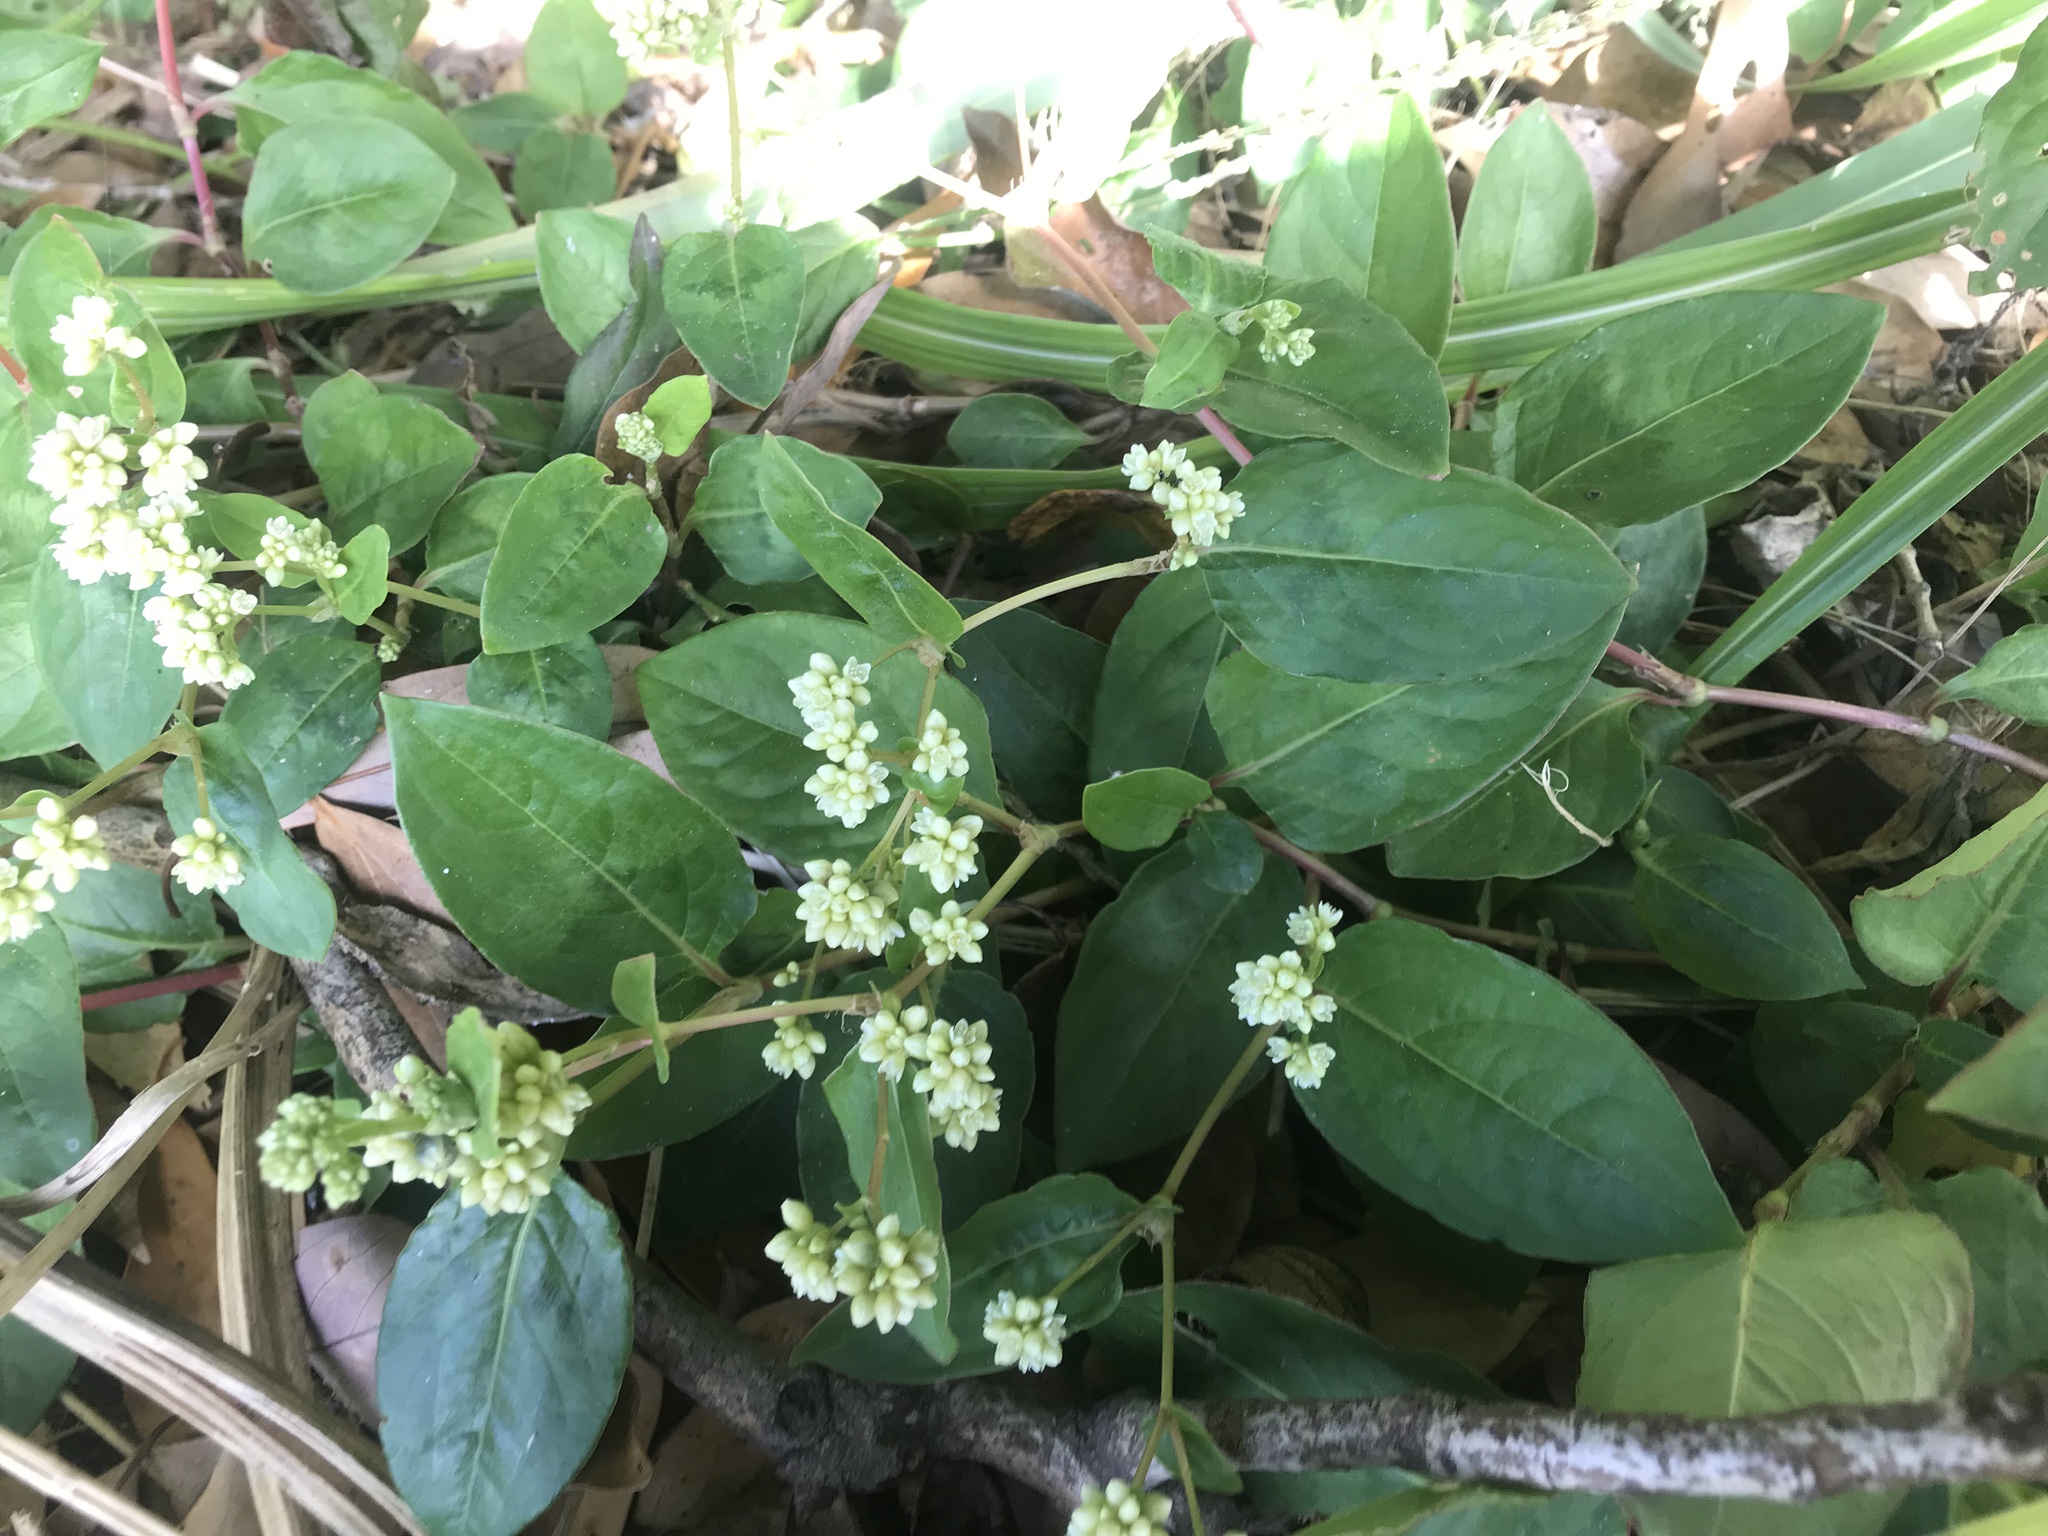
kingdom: Plantae
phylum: Tracheophyta
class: Magnoliopsida
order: Caryophyllales
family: Polygonaceae
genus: Persicaria
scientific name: Persicaria chinensis
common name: Chinese knotweed
